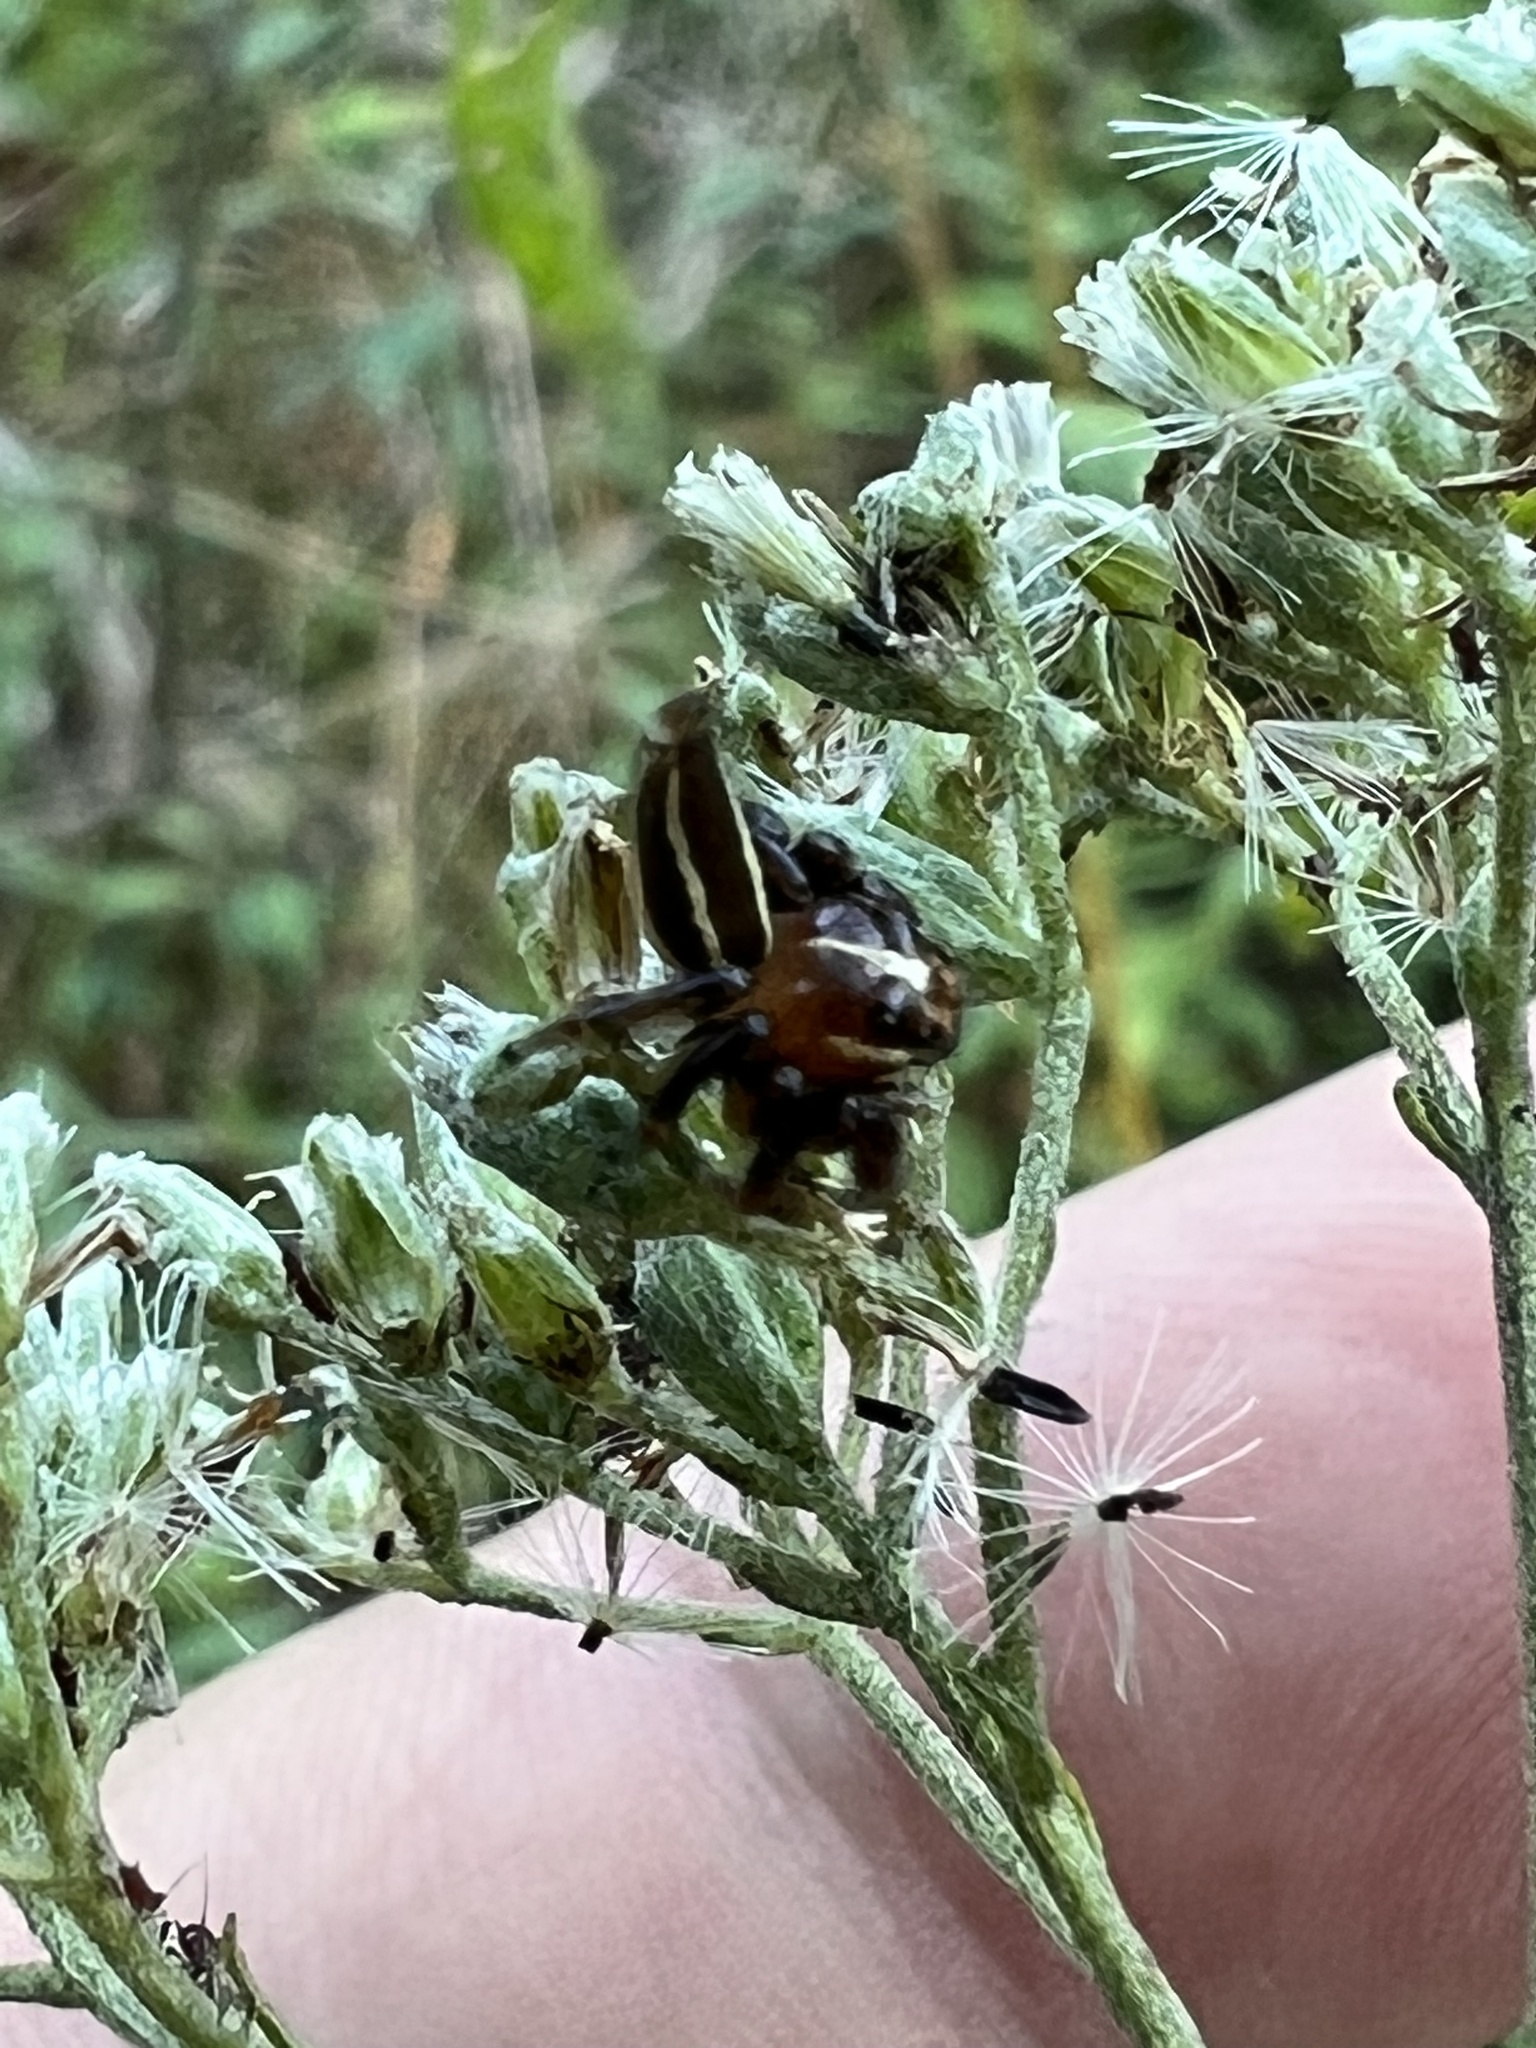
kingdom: Animalia
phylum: Arthropoda
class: Arachnida
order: Araneae
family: Salticidae
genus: Colonus
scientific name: Colonus puerperus
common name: Jumping spiders
